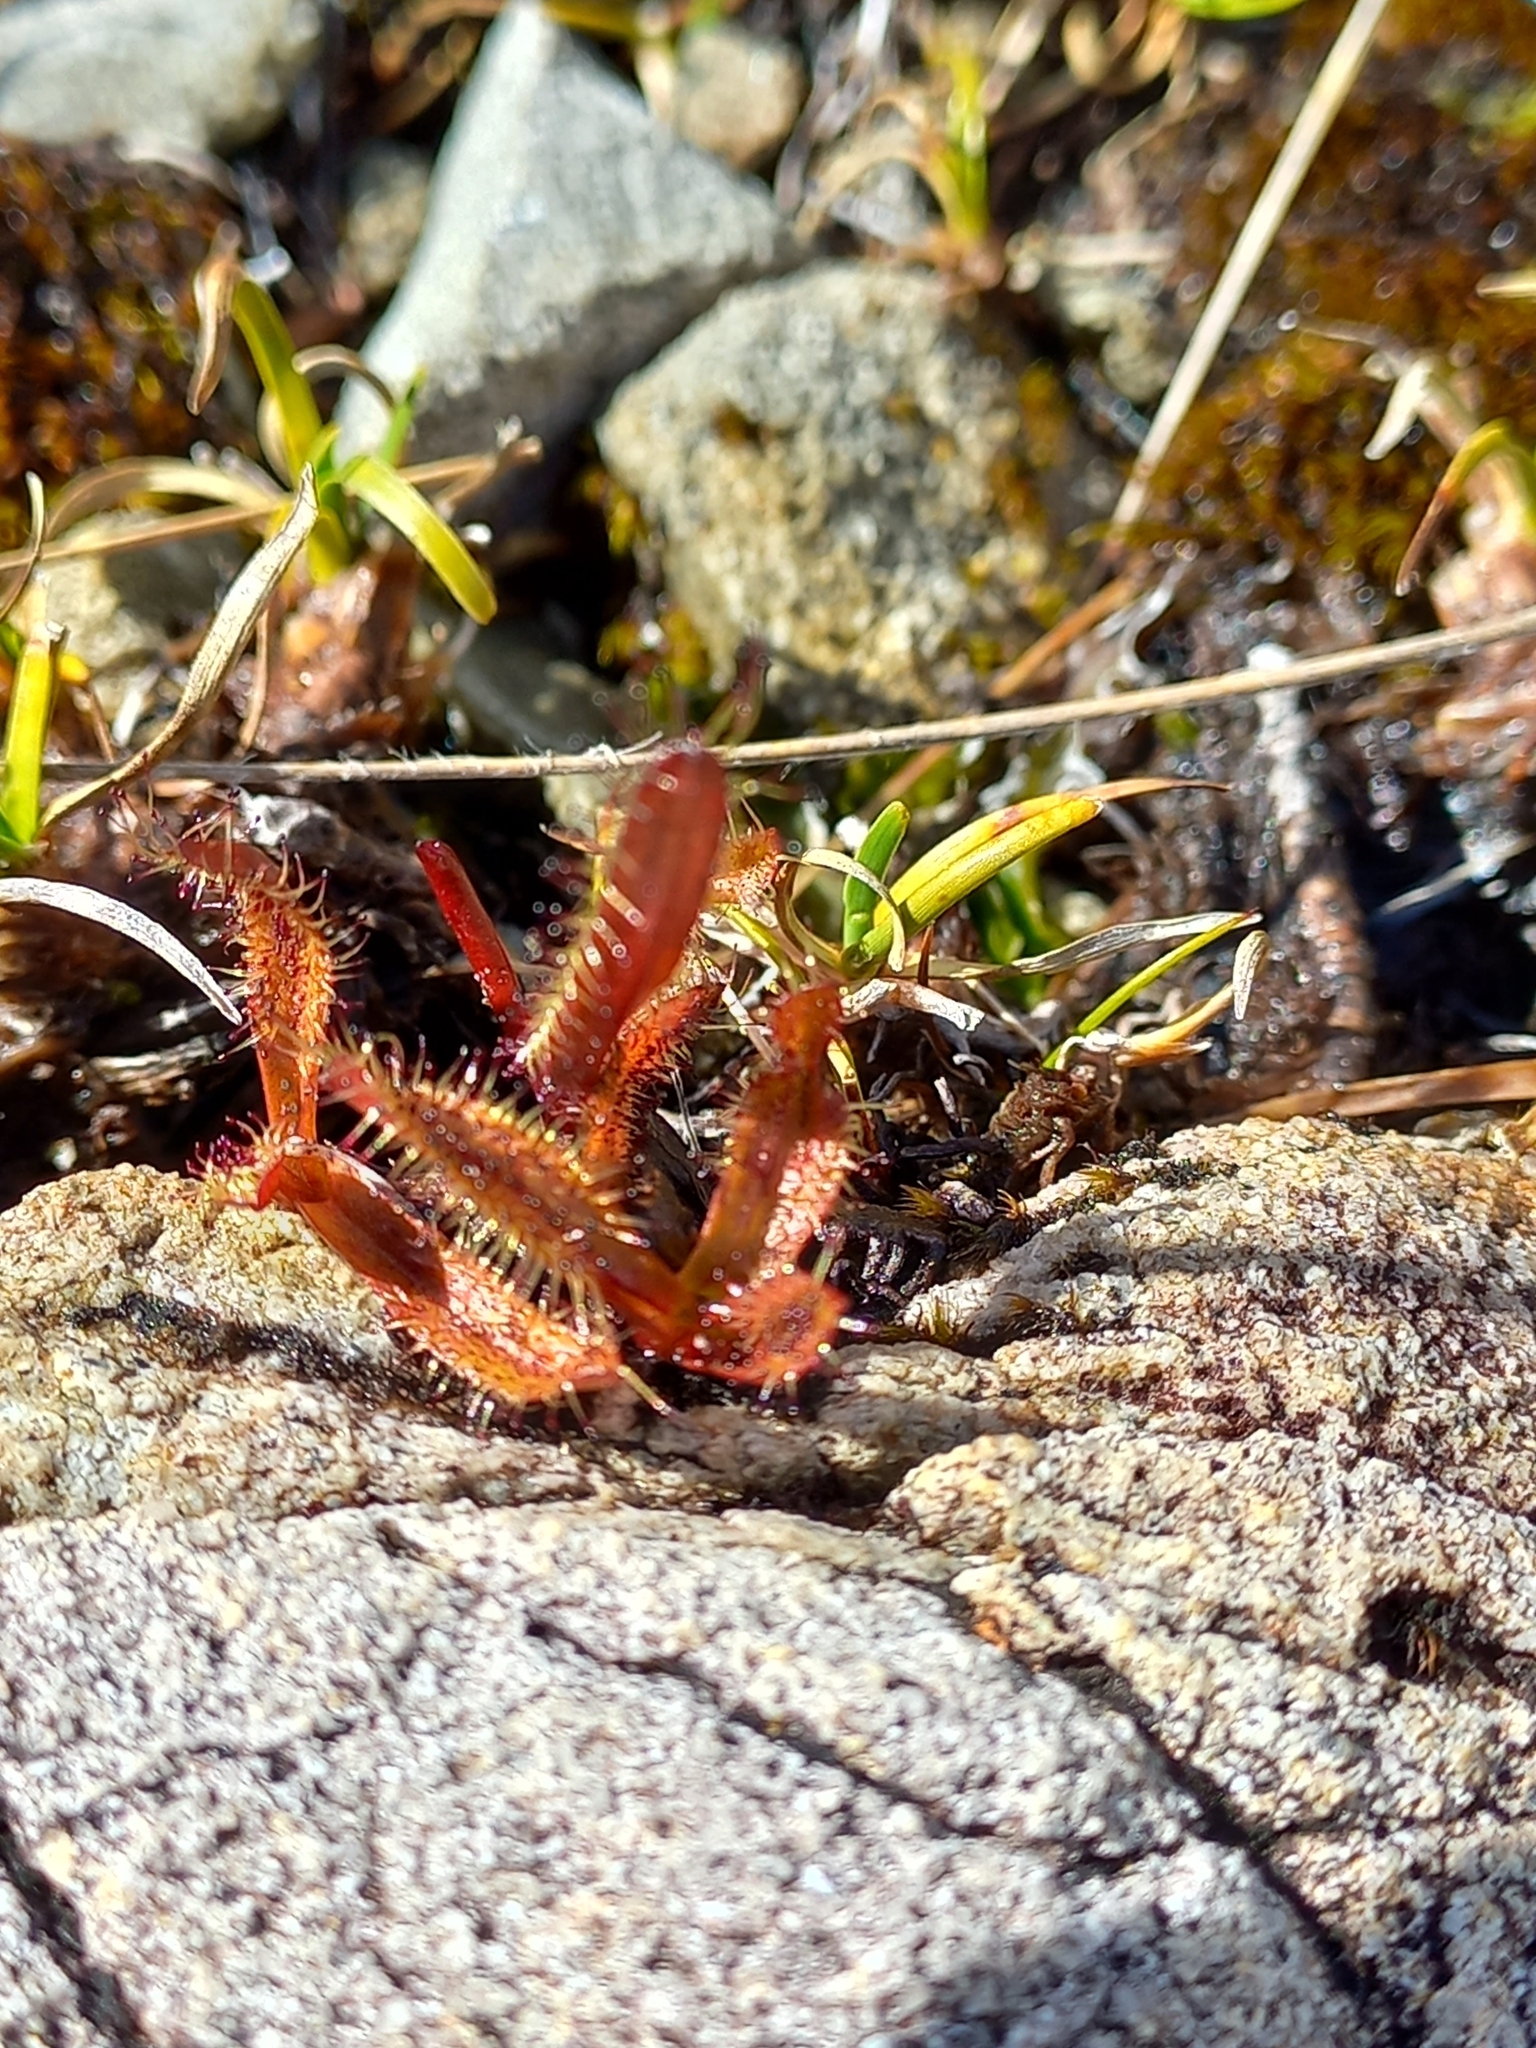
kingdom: Plantae
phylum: Tracheophyta
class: Magnoliopsida
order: Caryophyllales
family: Droseraceae
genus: Drosera
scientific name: Drosera arcturi
